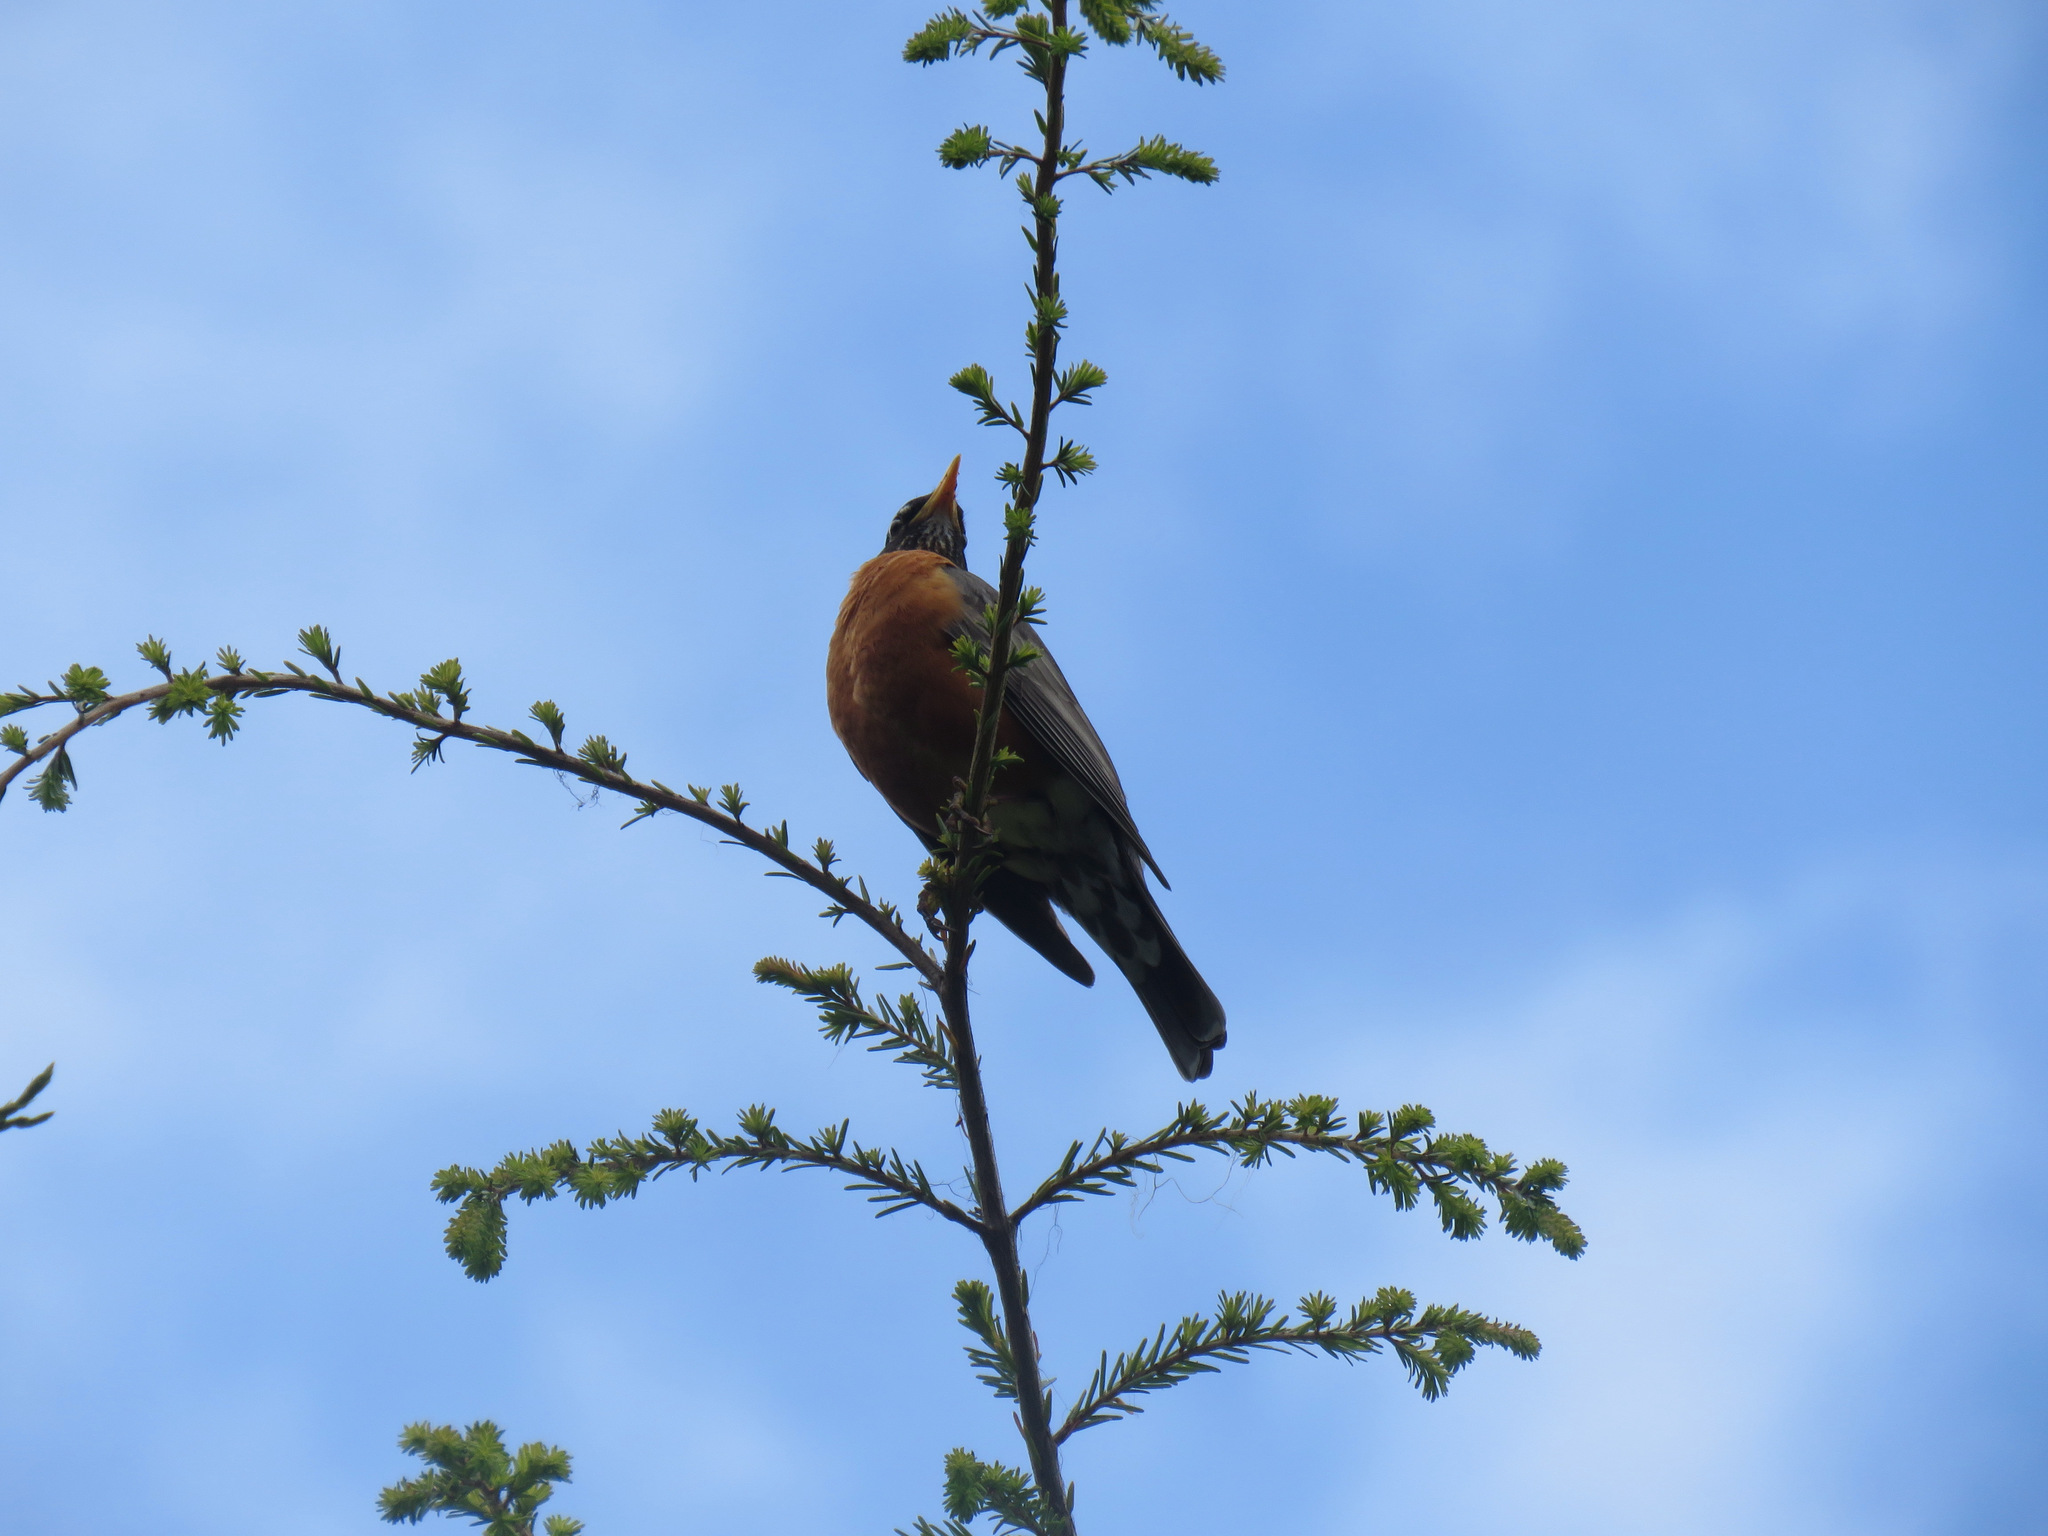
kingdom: Animalia
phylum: Chordata
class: Aves
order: Passeriformes
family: Turdidae
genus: Turdus
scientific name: Turdus migratorius
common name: American robin
